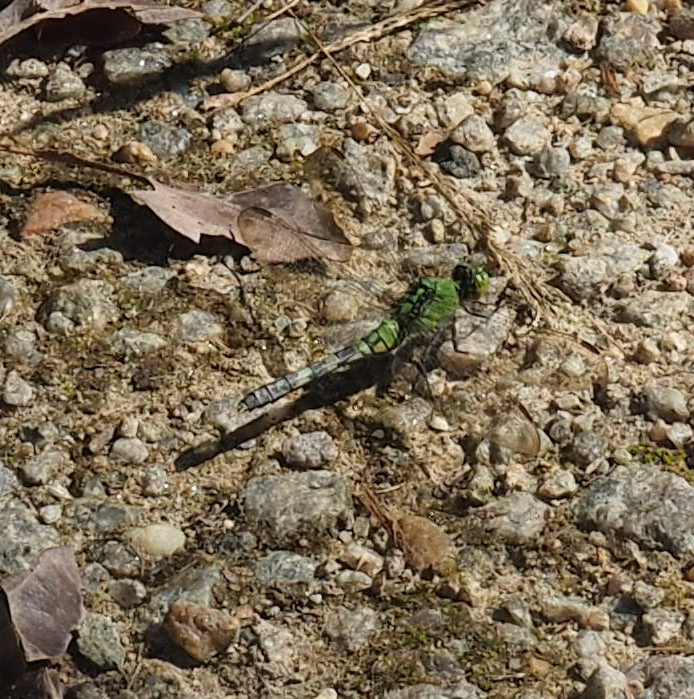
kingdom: Animalia
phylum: Arthropoda
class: Insecta
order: Odonata
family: Libellulidae
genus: Erythemis
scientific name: Erythemis simplicicollis
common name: Eastern pondhawk
